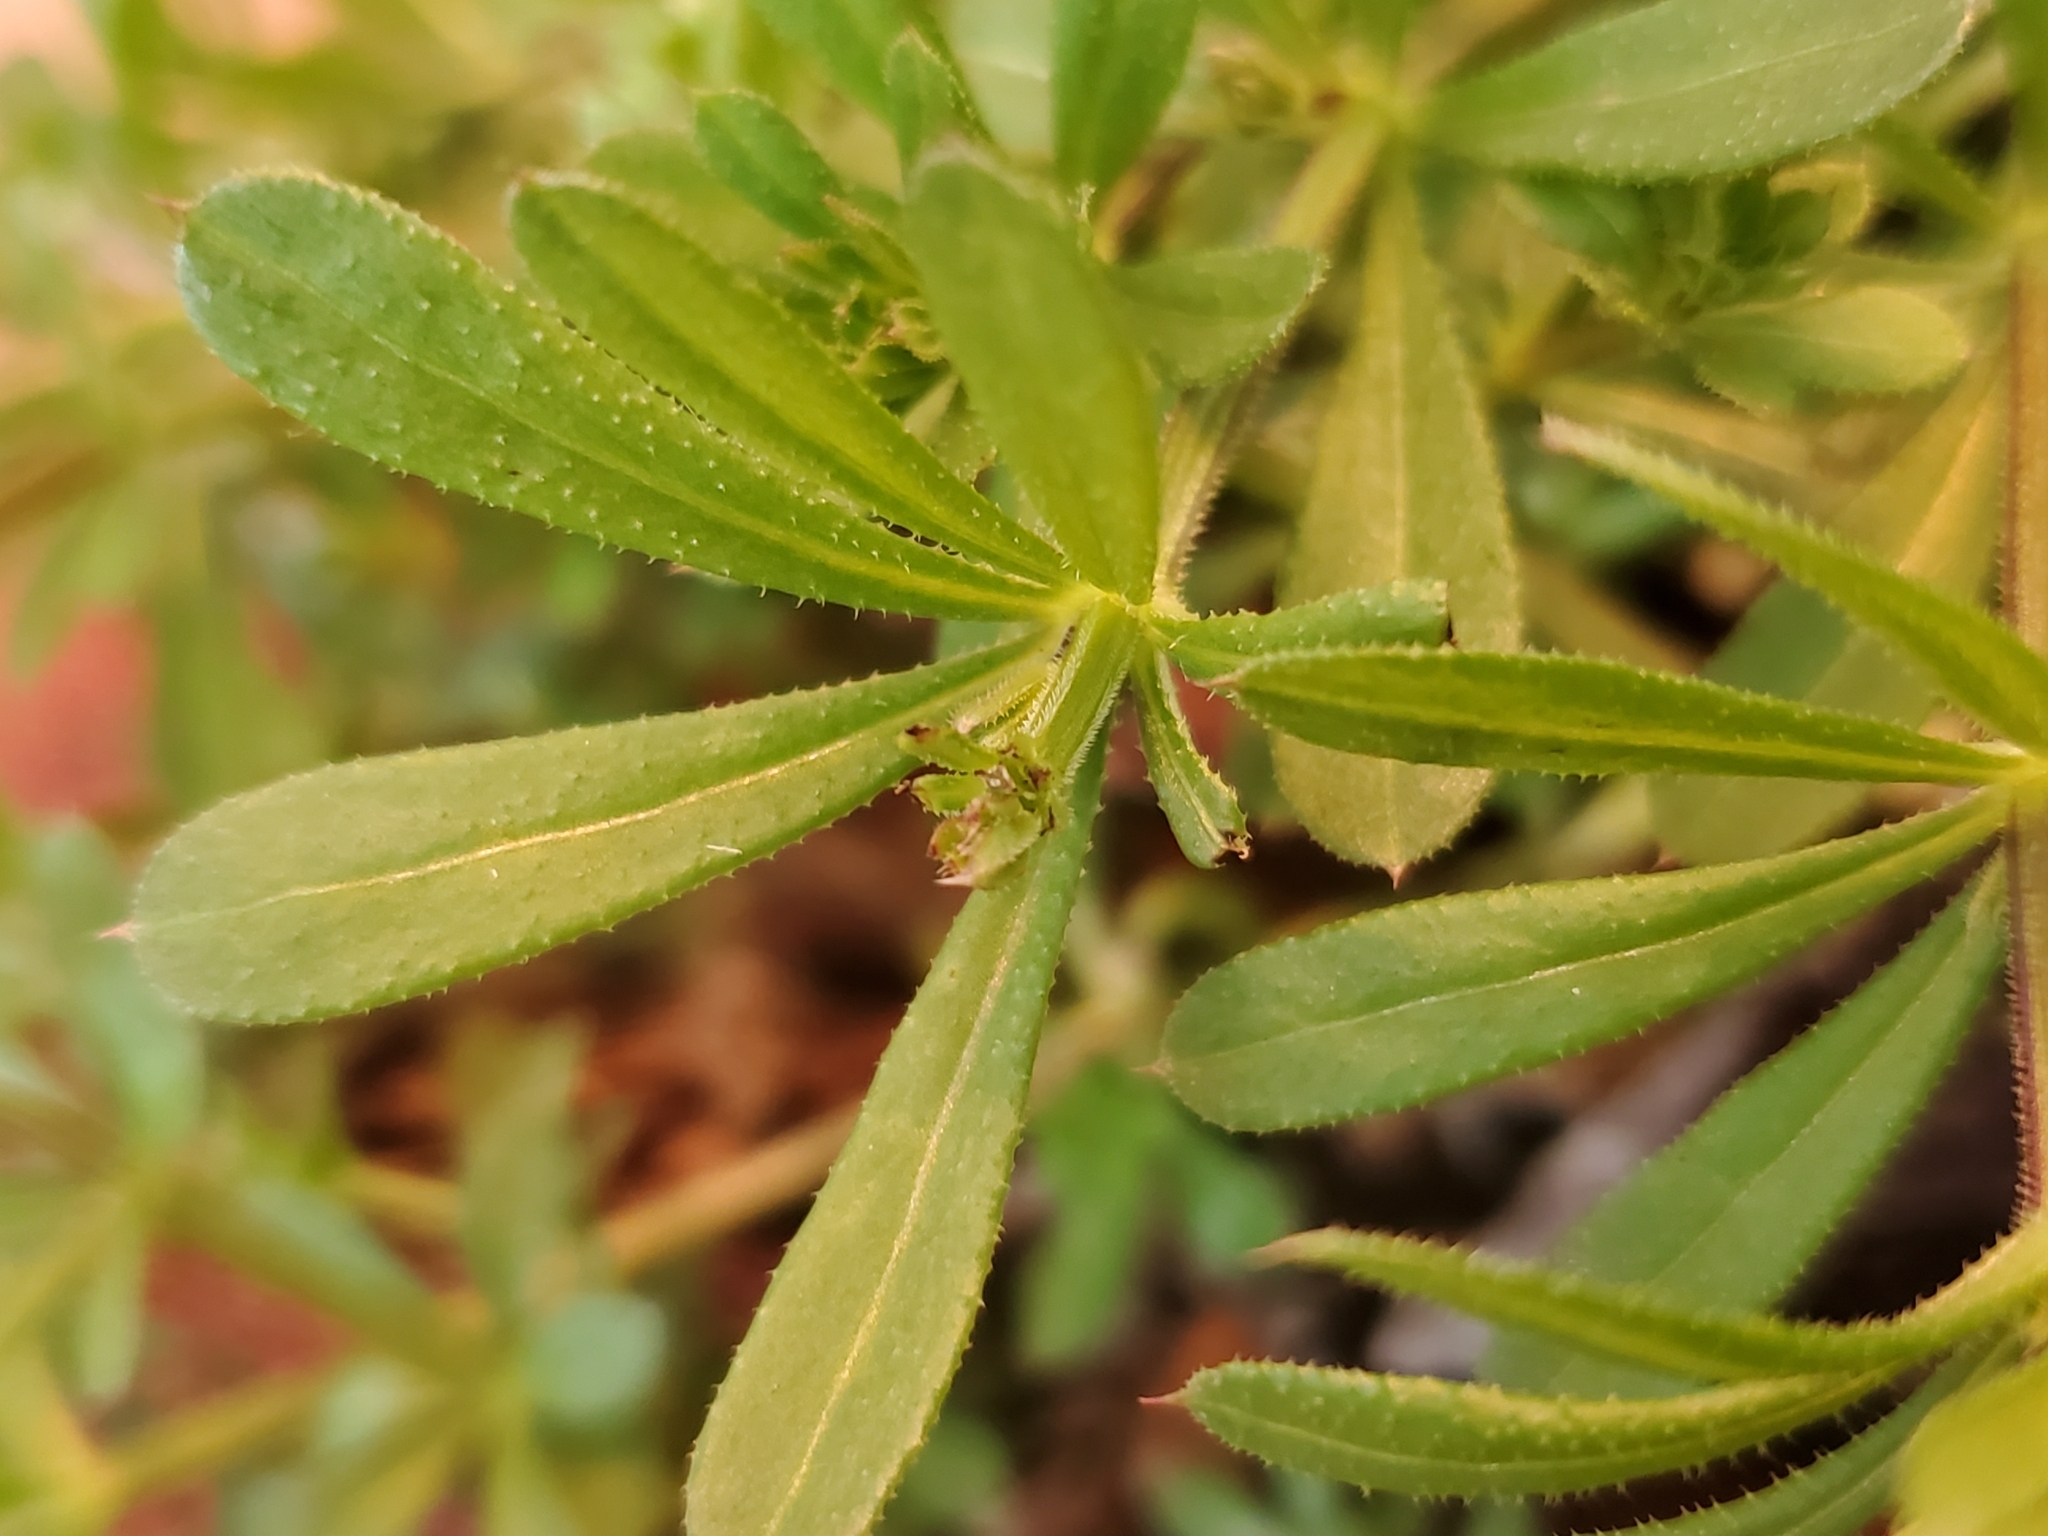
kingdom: Plantae
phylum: Tracheophyta
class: Magnoliopsida
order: Gentianales
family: Rubiaceae
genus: Galium
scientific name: Galium aparine
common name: Cleavers
